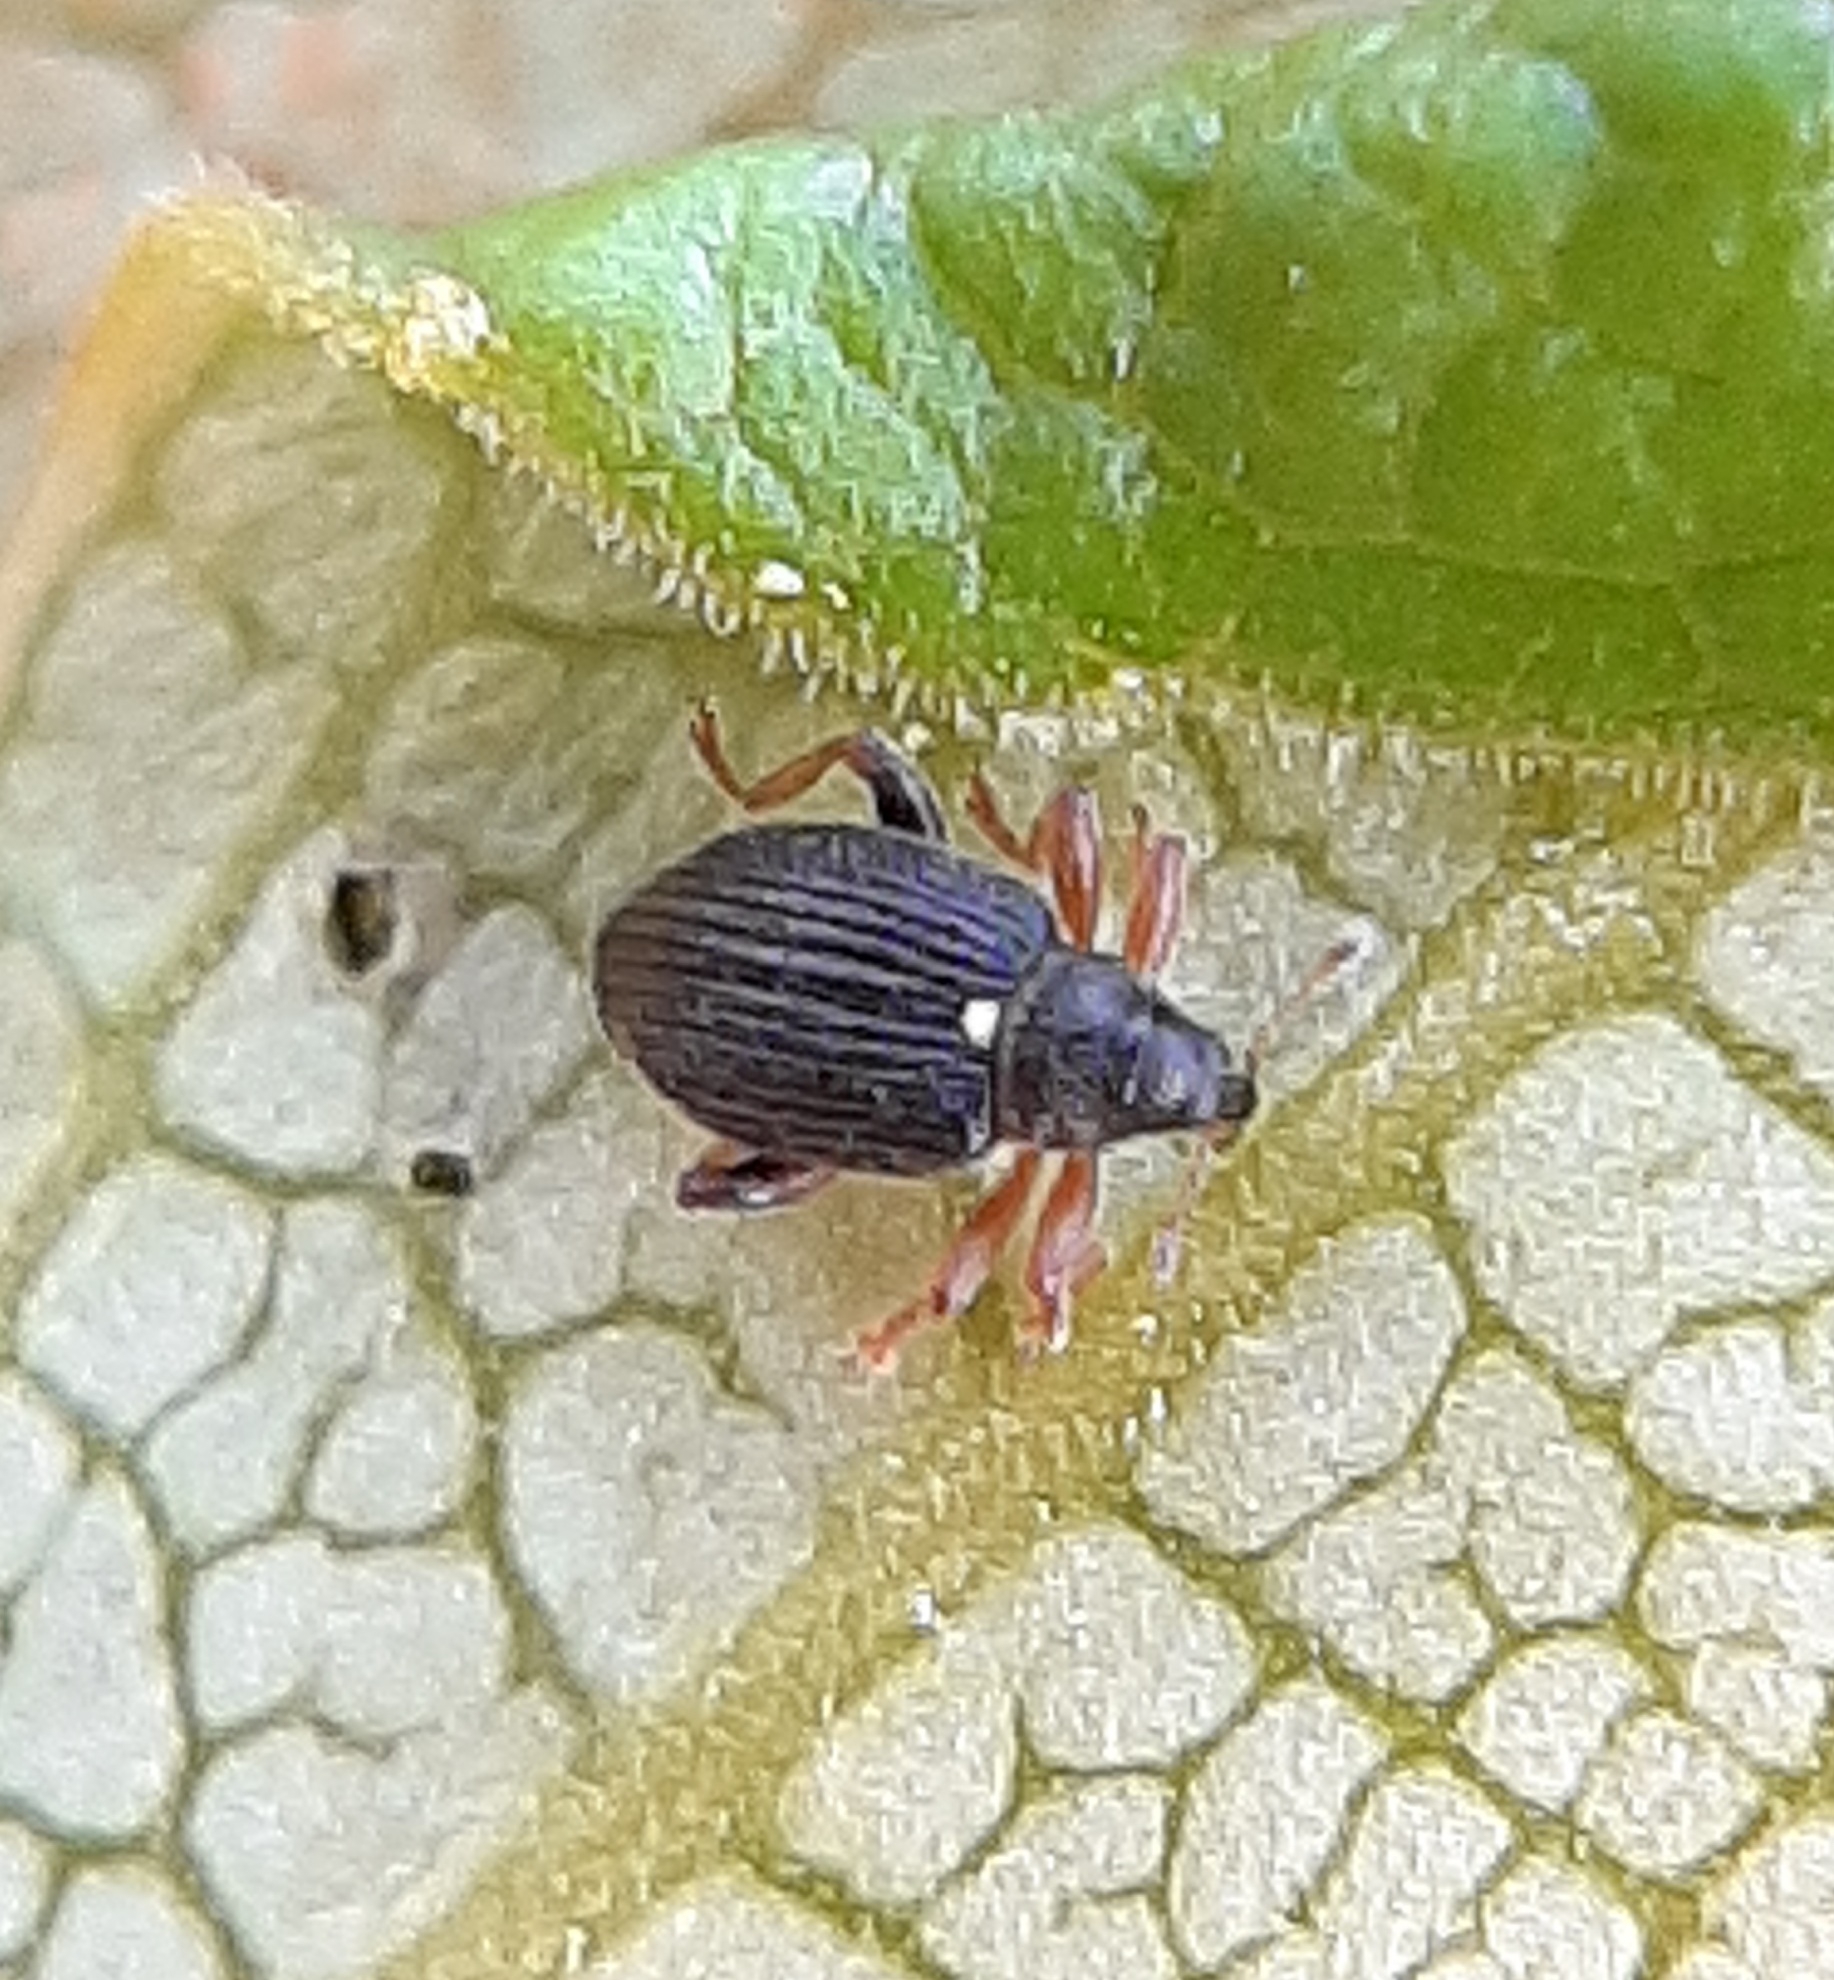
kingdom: Animalia
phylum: Arthropoda
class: Insecta
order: Coleoptera
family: Curculionidae
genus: Isochnus
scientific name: Isochnus sequensi
